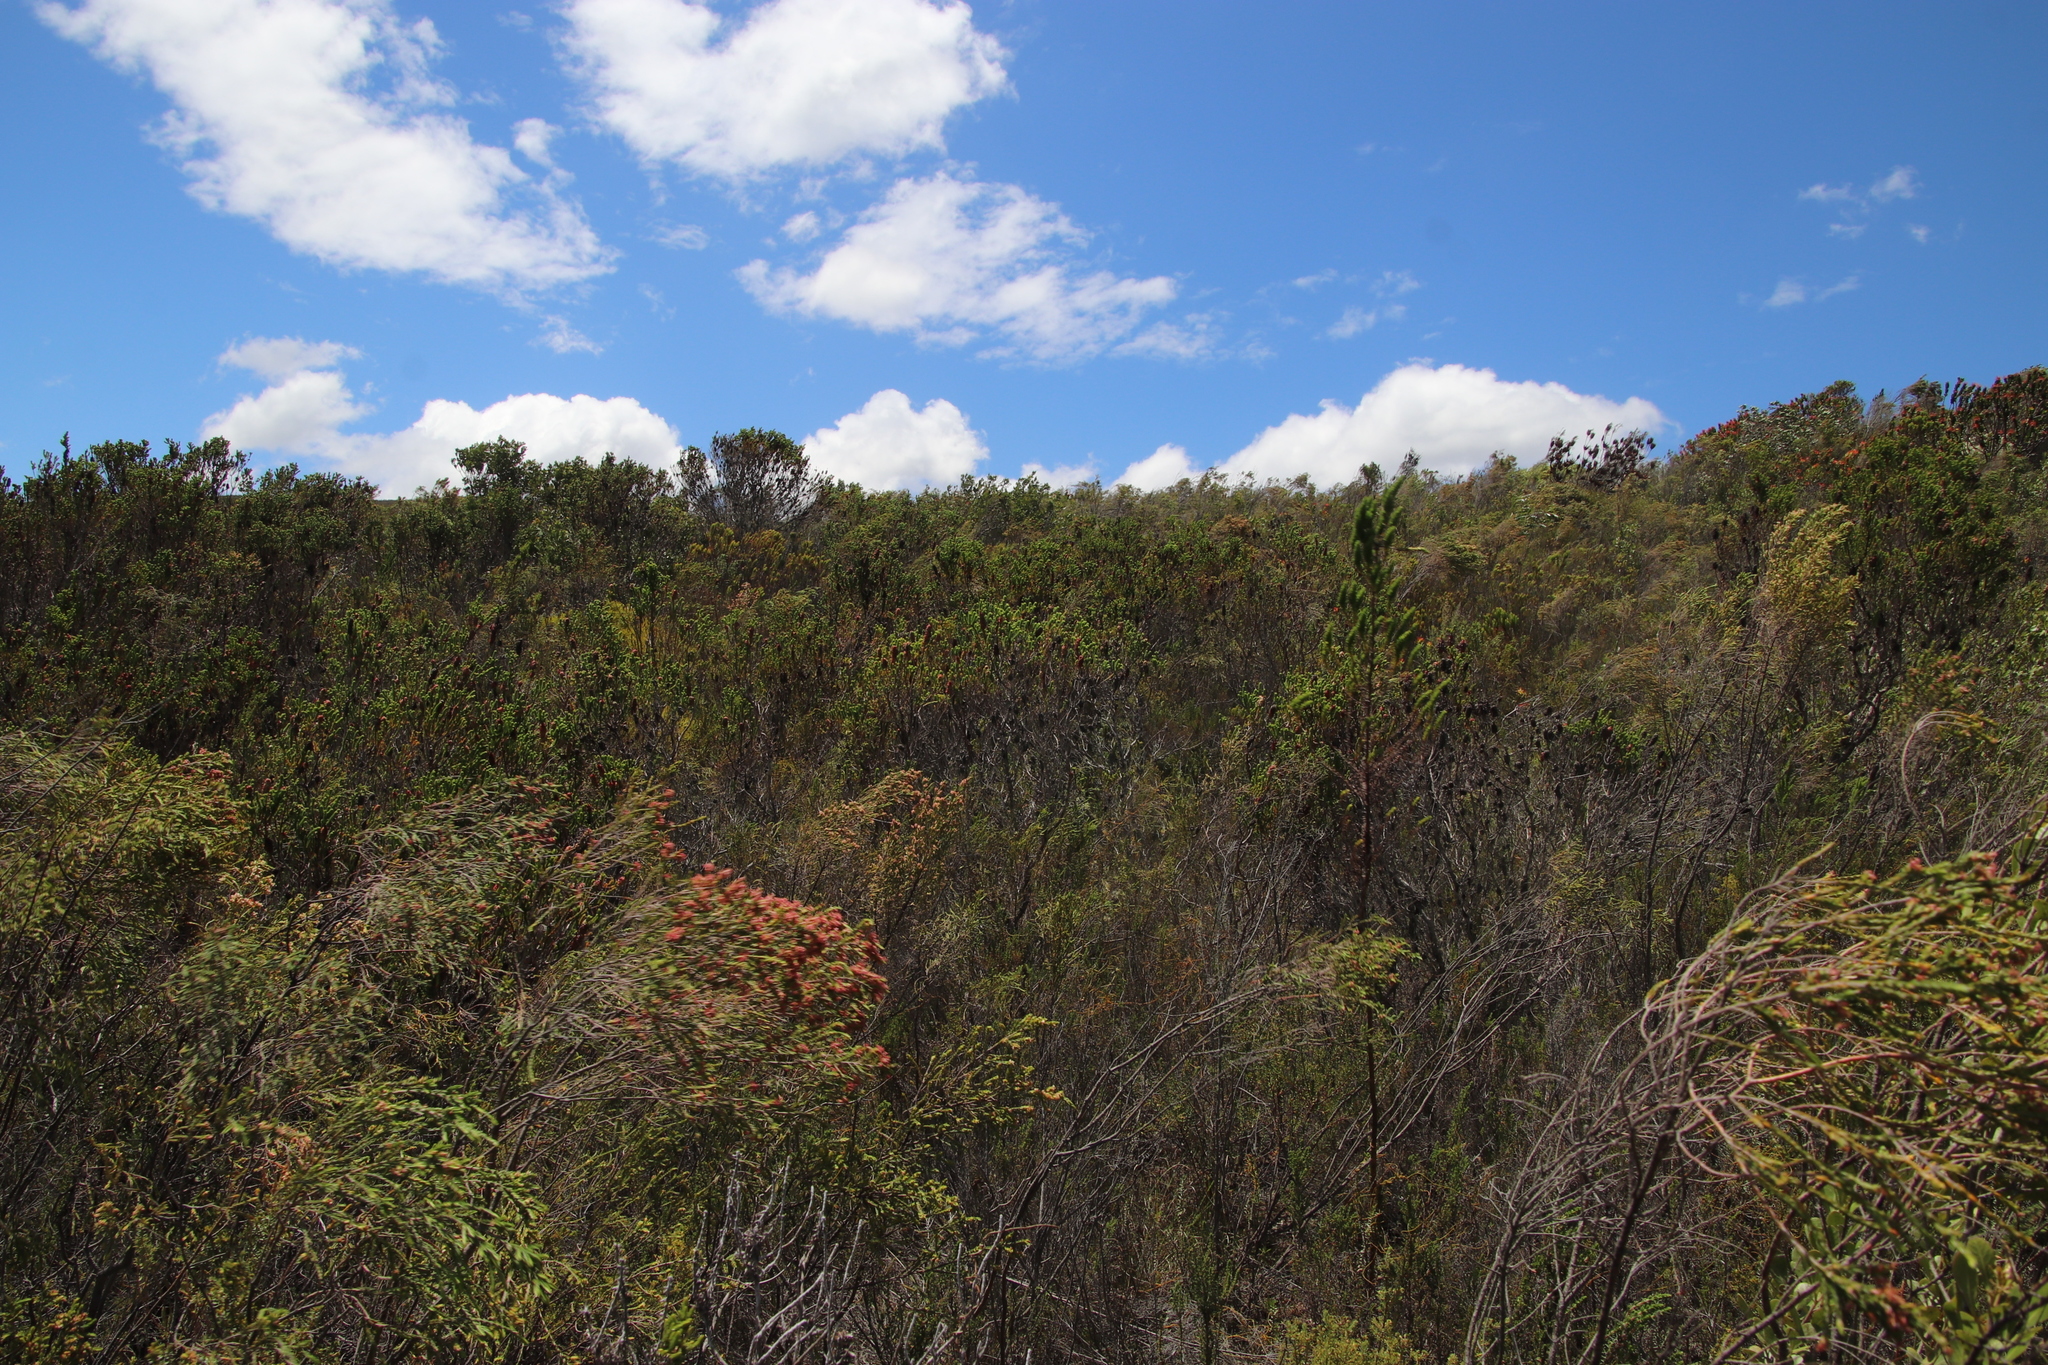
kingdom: Plantae
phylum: Tracheophyta
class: Magnoliopsida
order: Ericales
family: Ericaceae
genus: Erica
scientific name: Erica sessiliflora
